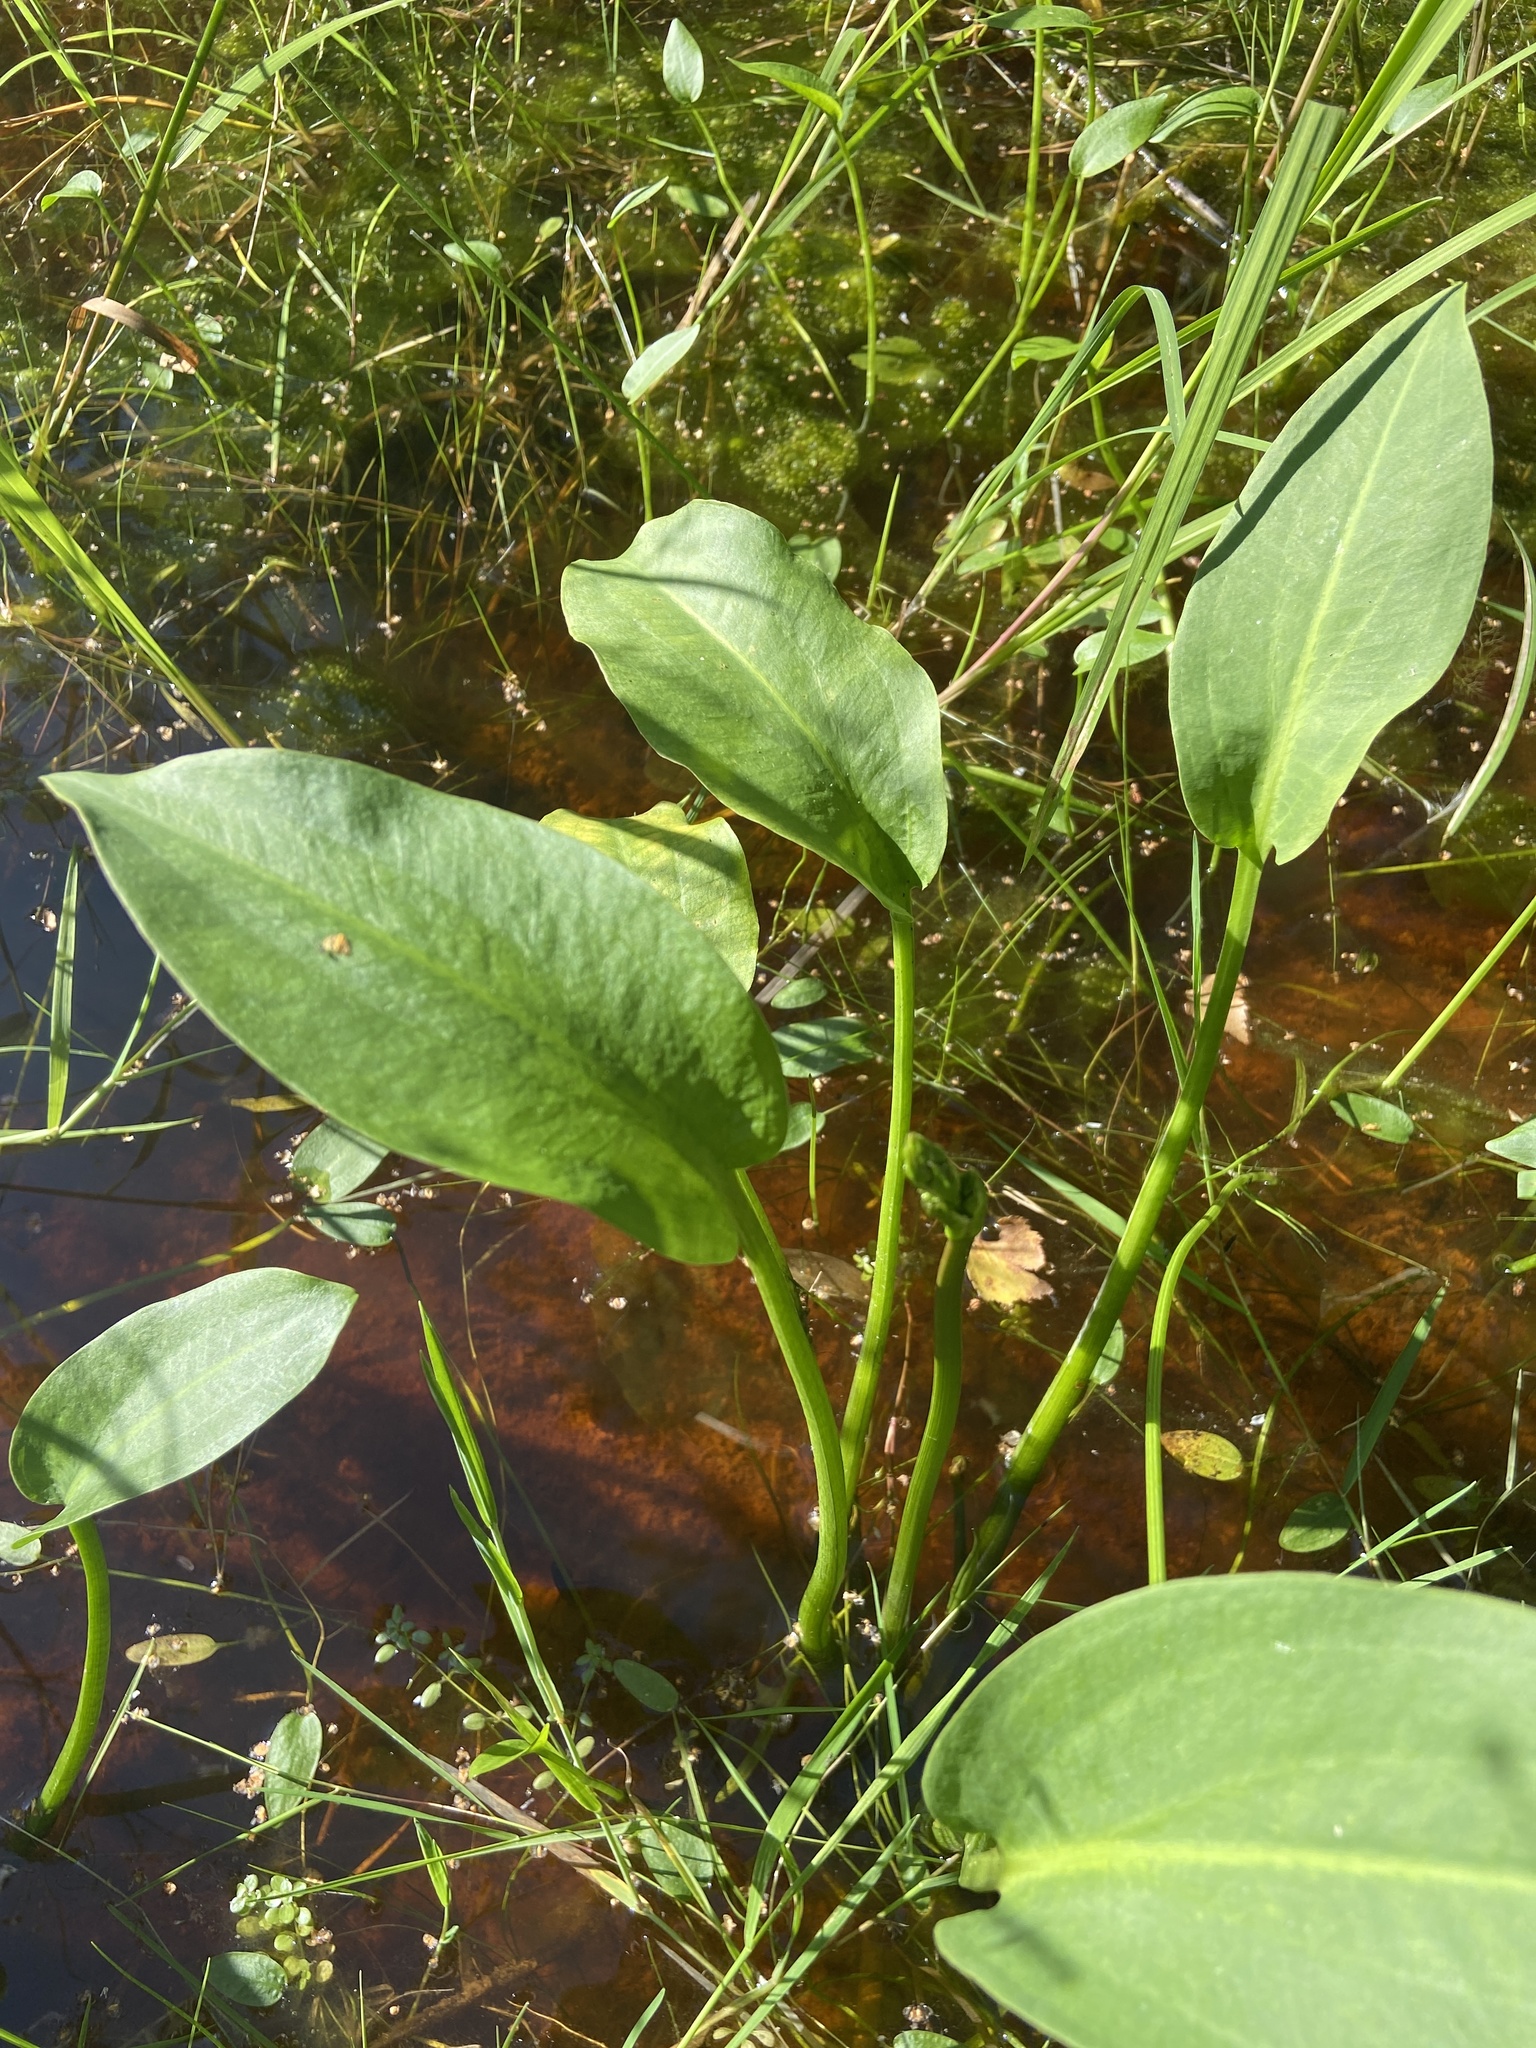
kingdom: Plantae
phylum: Tracheophyta
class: Liliopsida
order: Alismatales
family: Alismataceae
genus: Alisma
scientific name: Alisma plantago-aquatica
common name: Water-plantain
